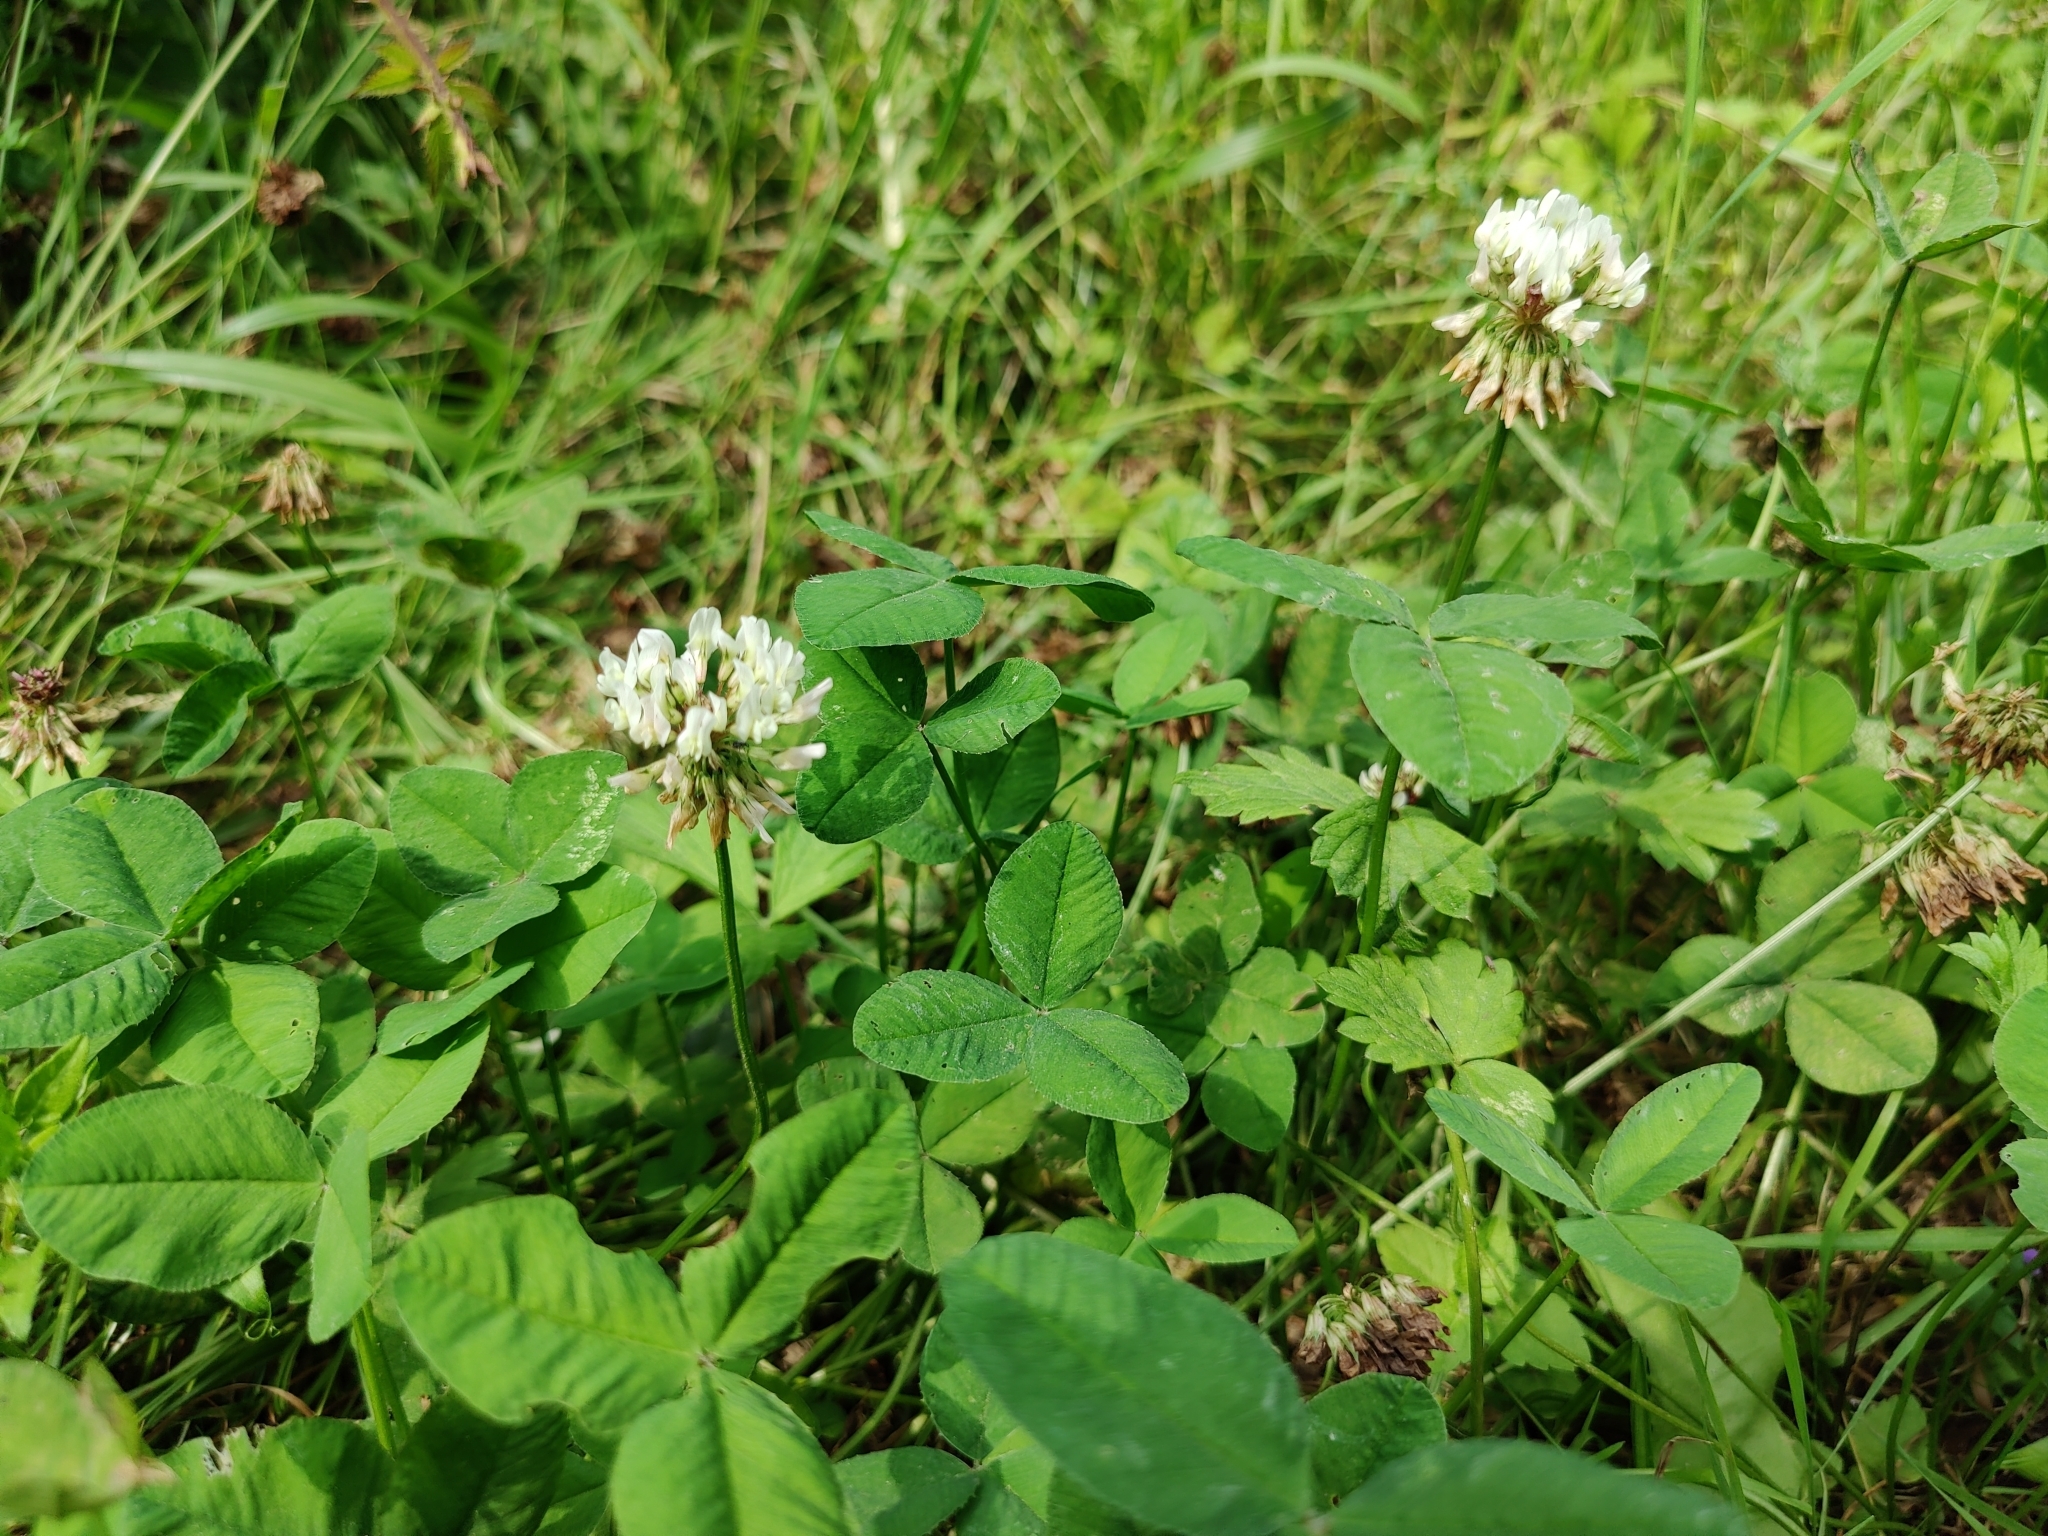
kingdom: Plantae
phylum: Tracheophyta
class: Magnoliopsida
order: Fabales
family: Fabaceae
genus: Trifolium
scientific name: Trifolium repens
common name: White clover
